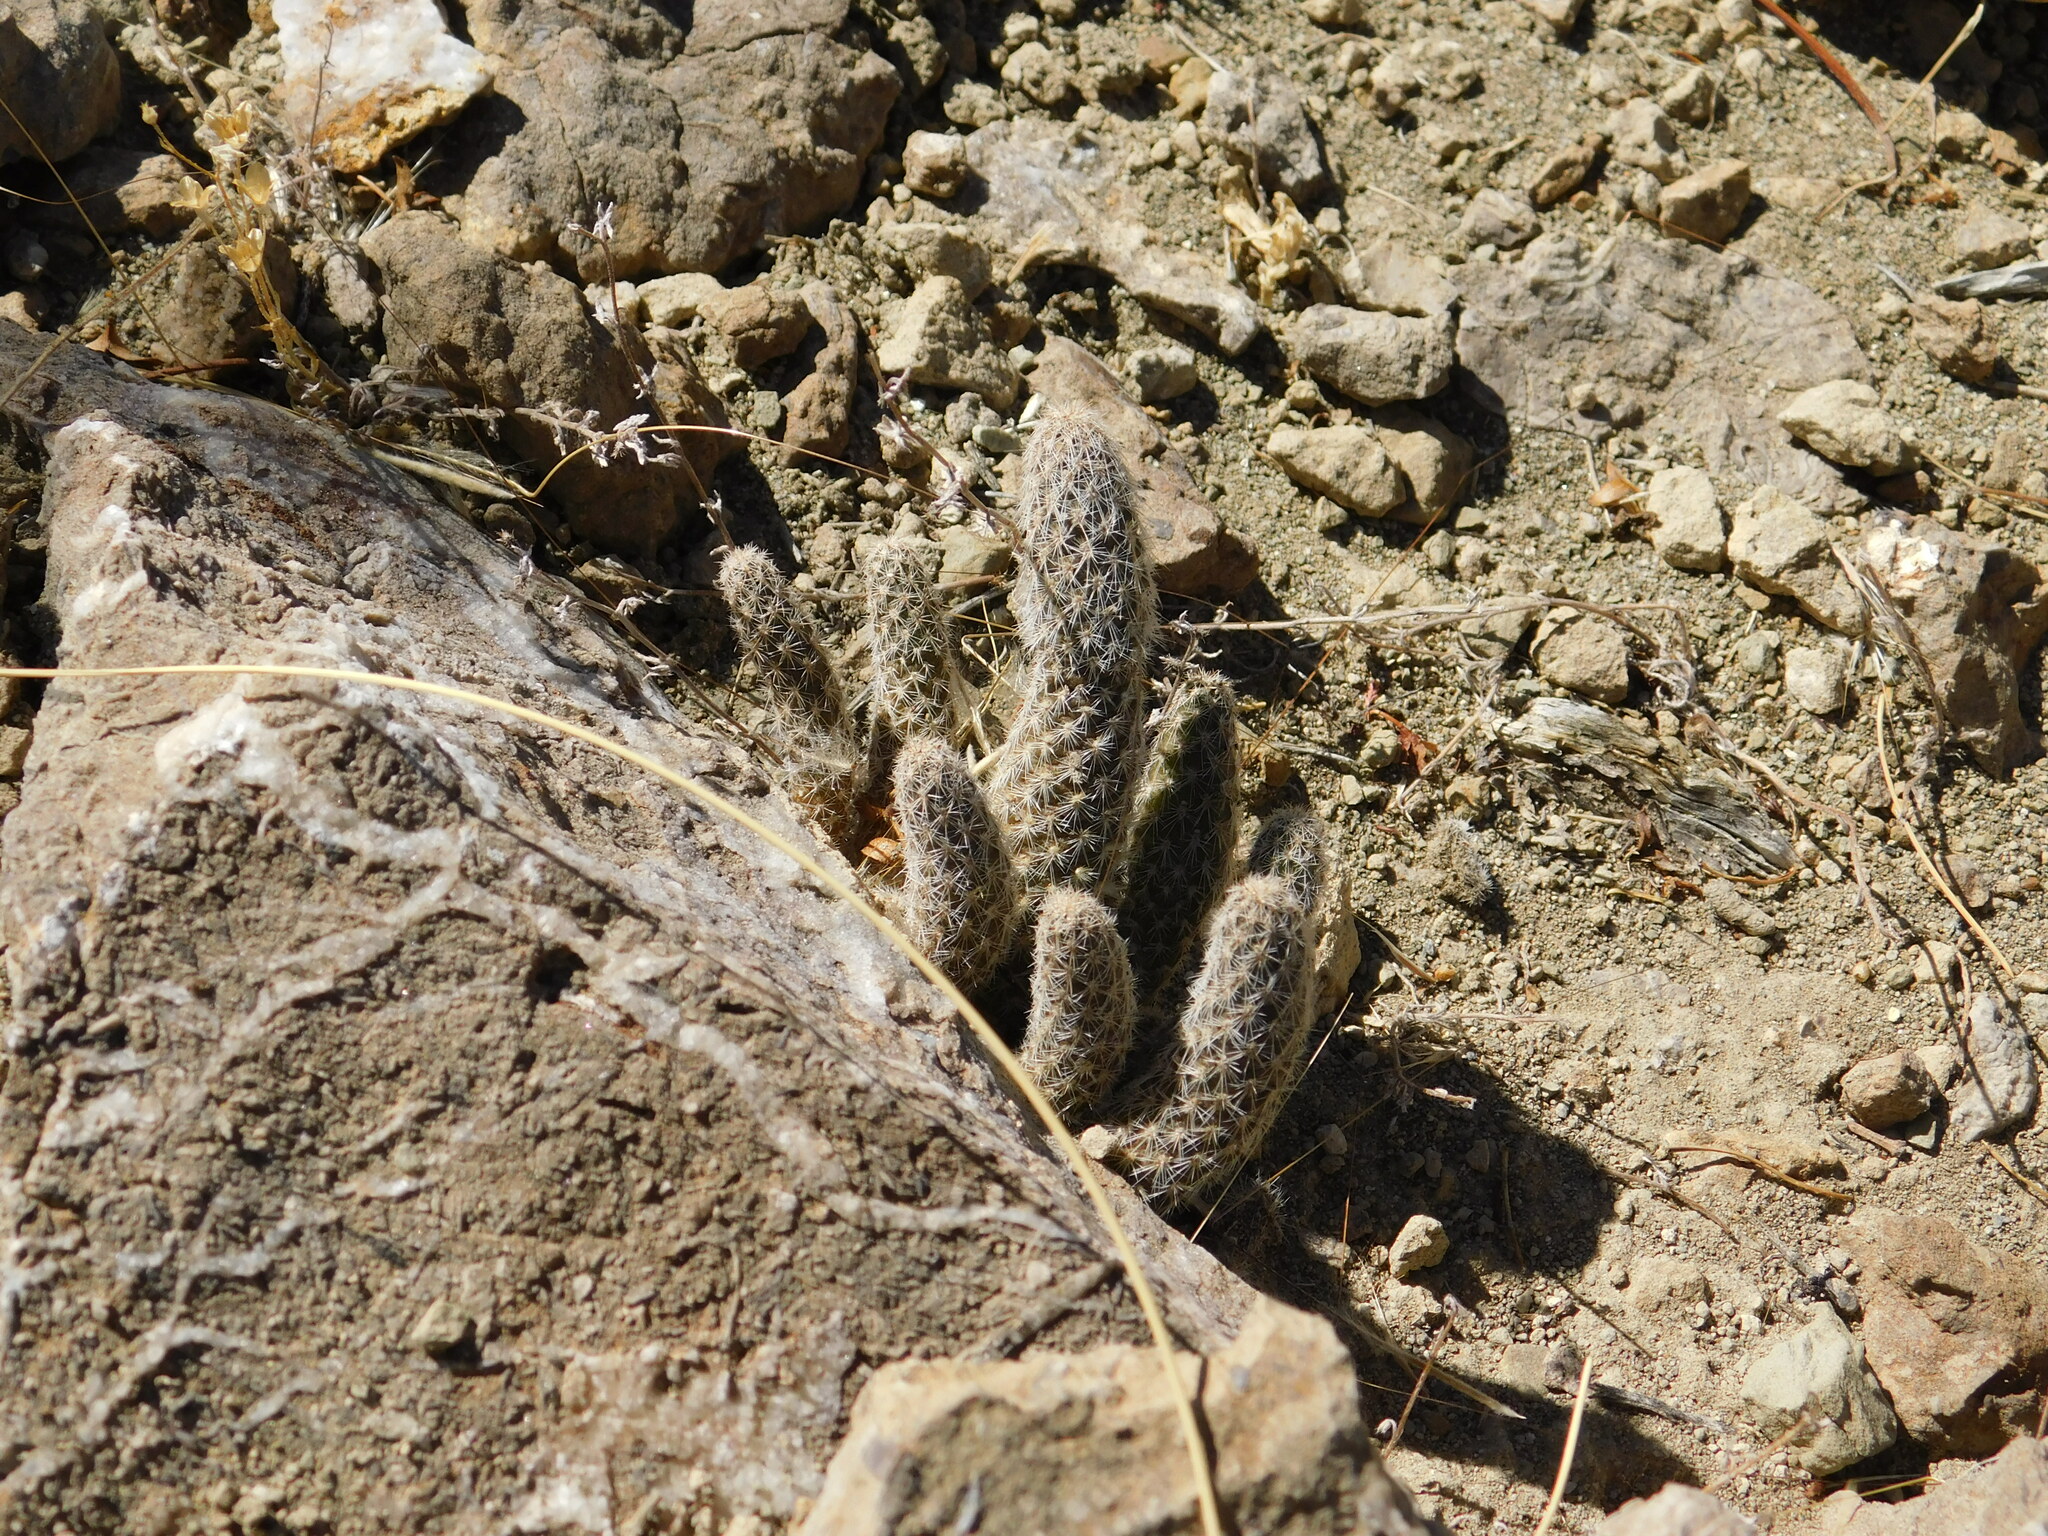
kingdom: Plantae
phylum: Tracheophyta
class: Magnoliopsida
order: Caryophyllales
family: Cactaceae
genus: Pterocactus
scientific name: Pterocactus fischeri
